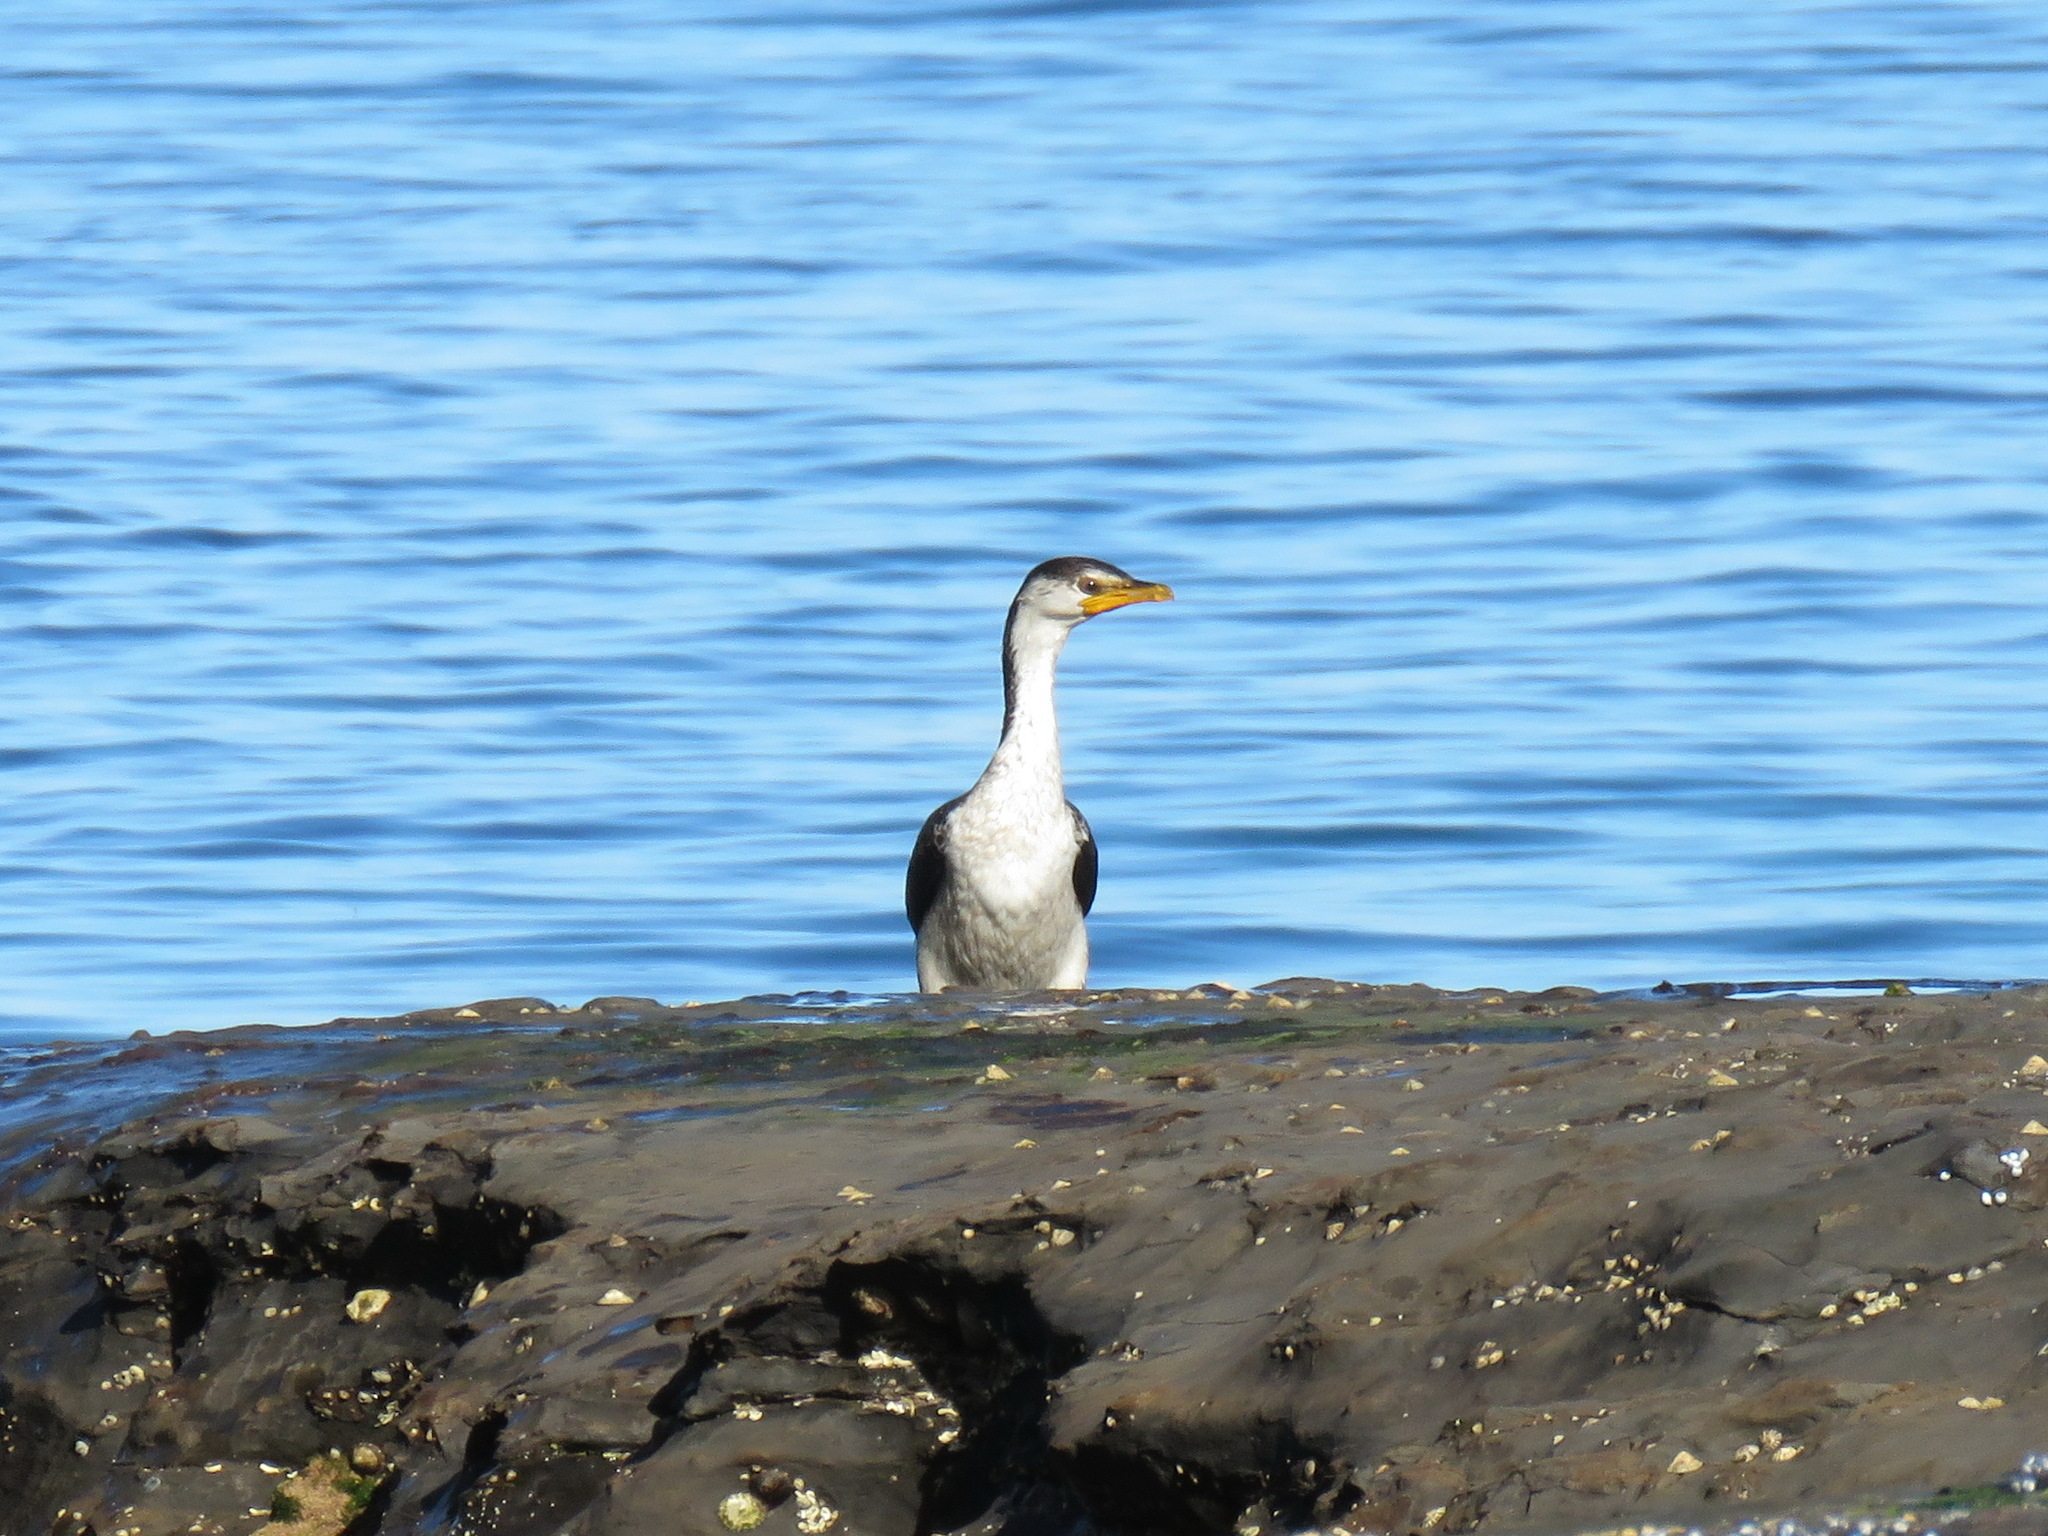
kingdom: Animalia
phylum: Chordata
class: Aves
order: Suliformes
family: Phalacrocoracidae
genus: Microcarbo
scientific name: Microcarbo melanoleucos
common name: Little pied cormorant
